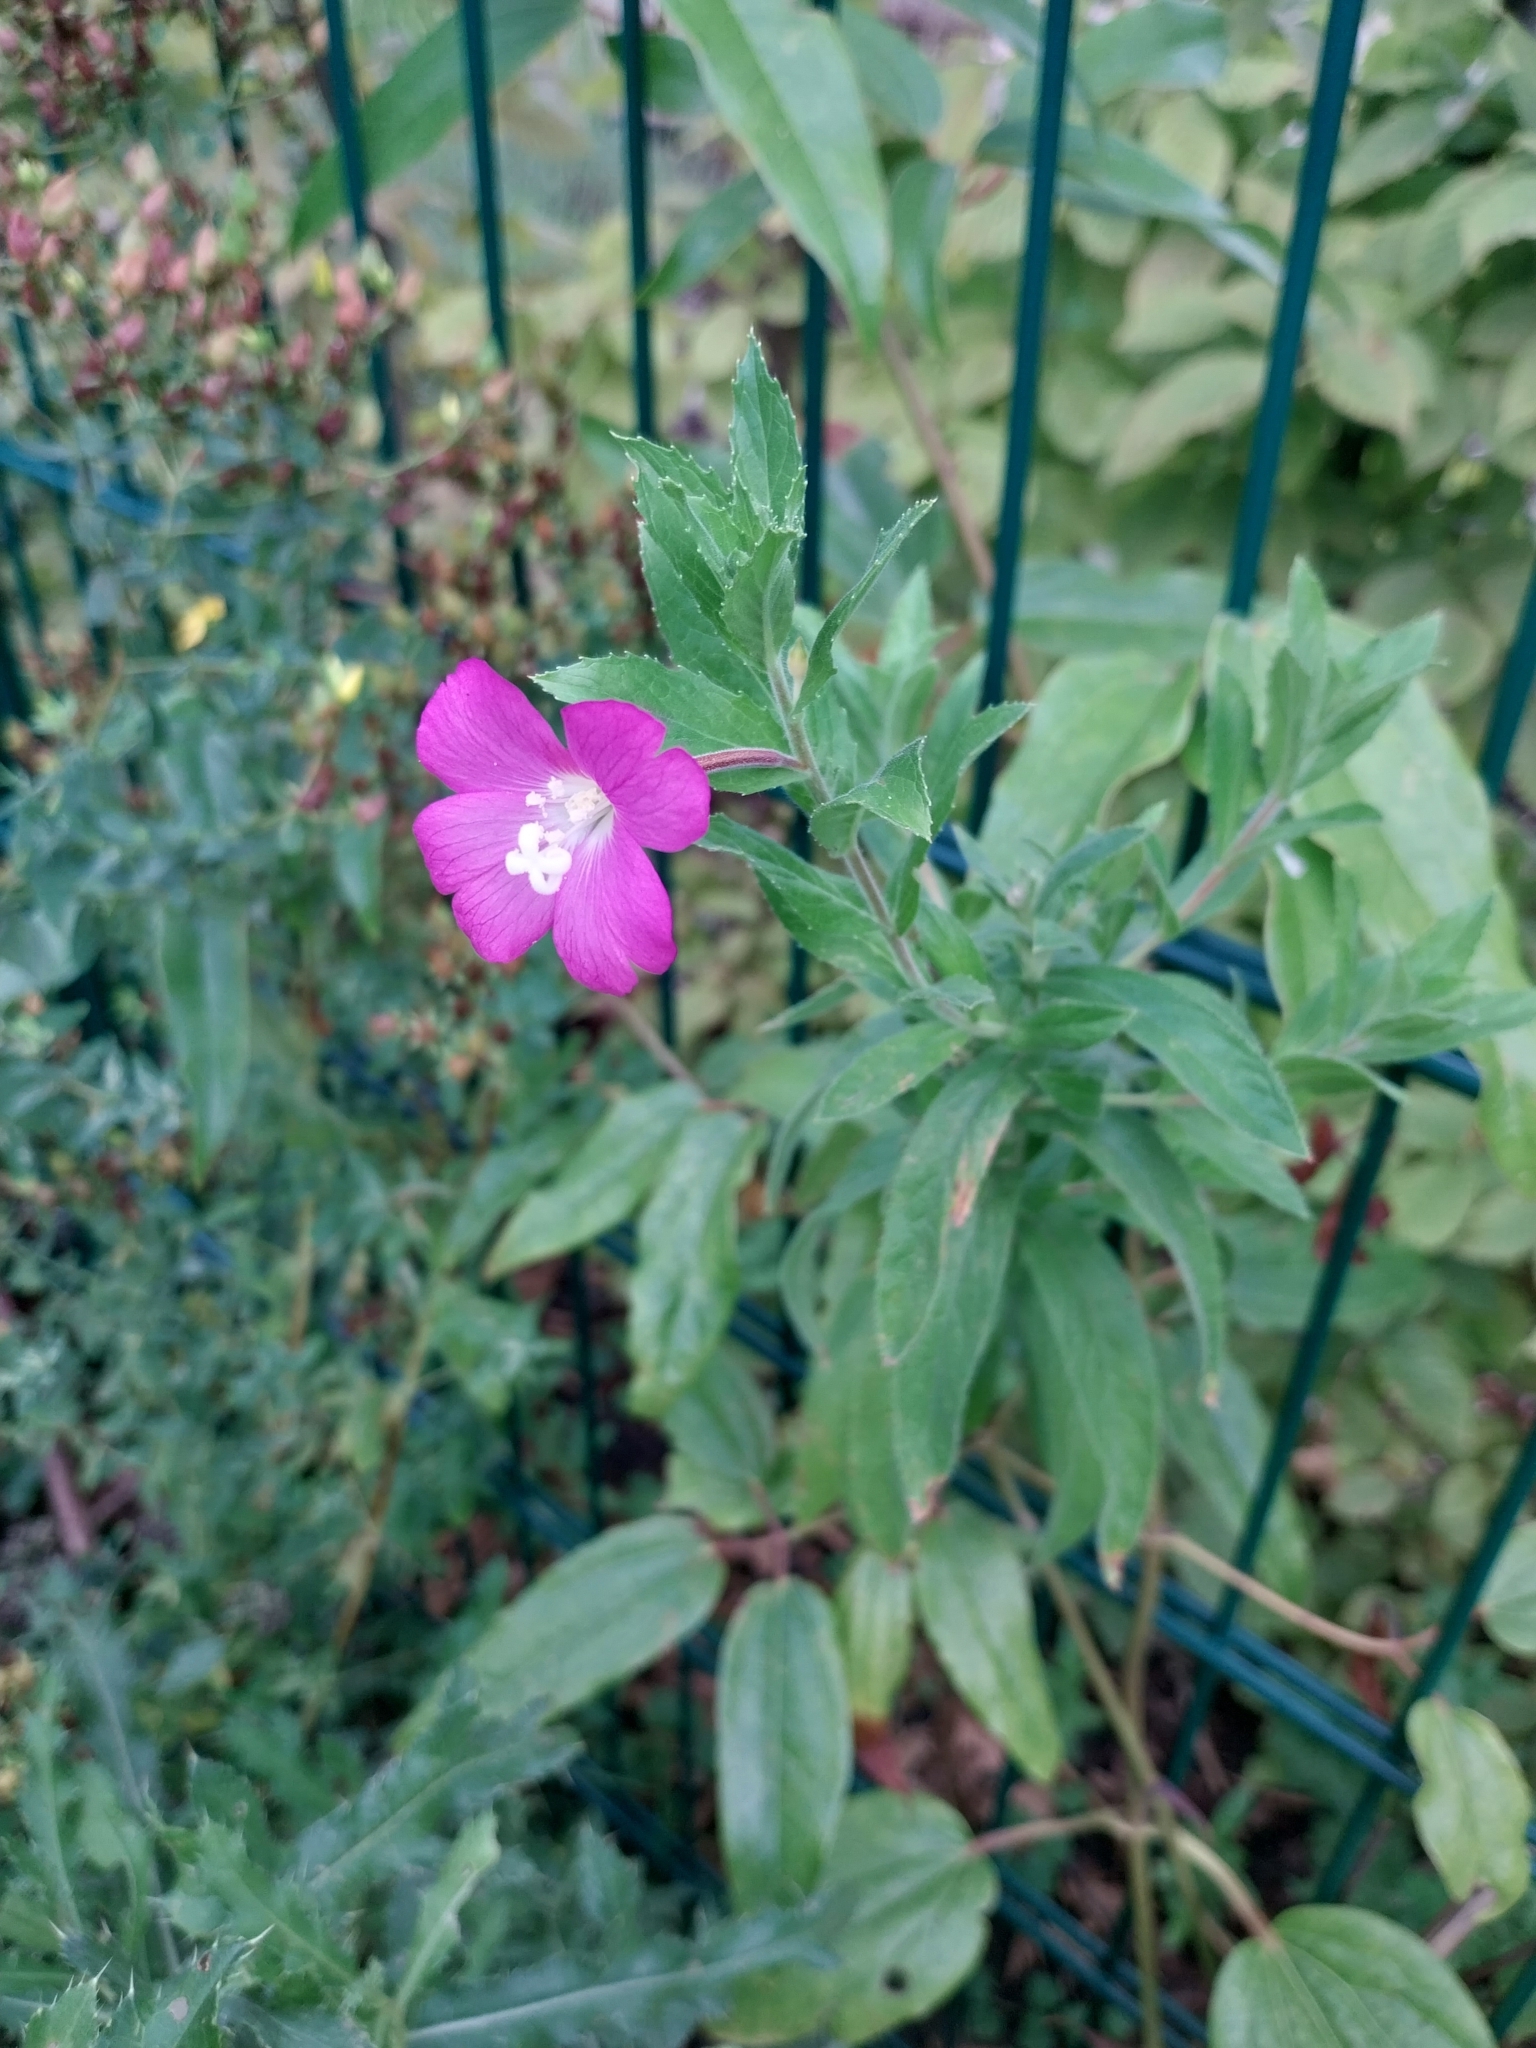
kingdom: Plantae
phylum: Tracheophyta
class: Magnoliopsida
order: Myrtales
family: Onagraceae
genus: Epilobium
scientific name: Epilobium hirsutum
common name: Great willowherb
